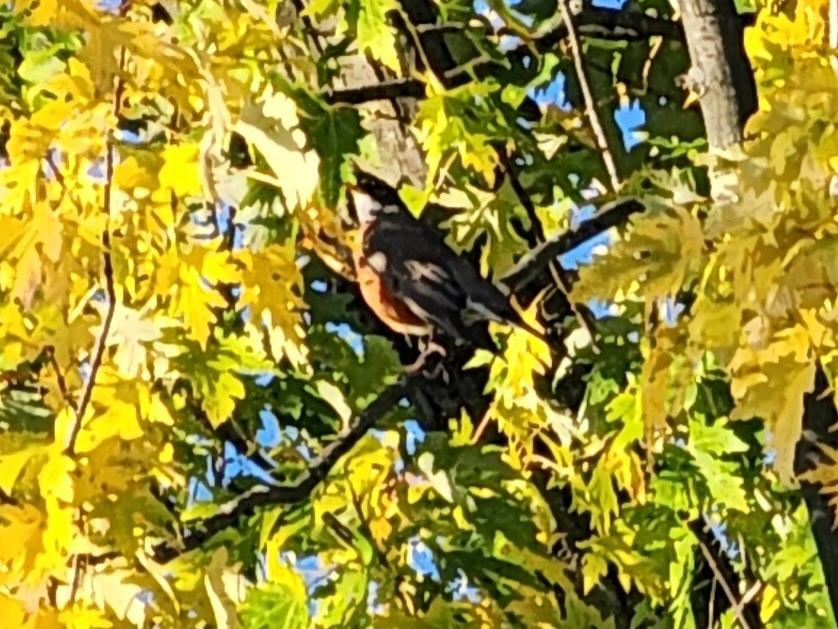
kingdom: Animalia
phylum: Chordata
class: Aves
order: Passeriformes
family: Turdidae
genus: Turdus
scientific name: Turdus migratorius
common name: American robin
